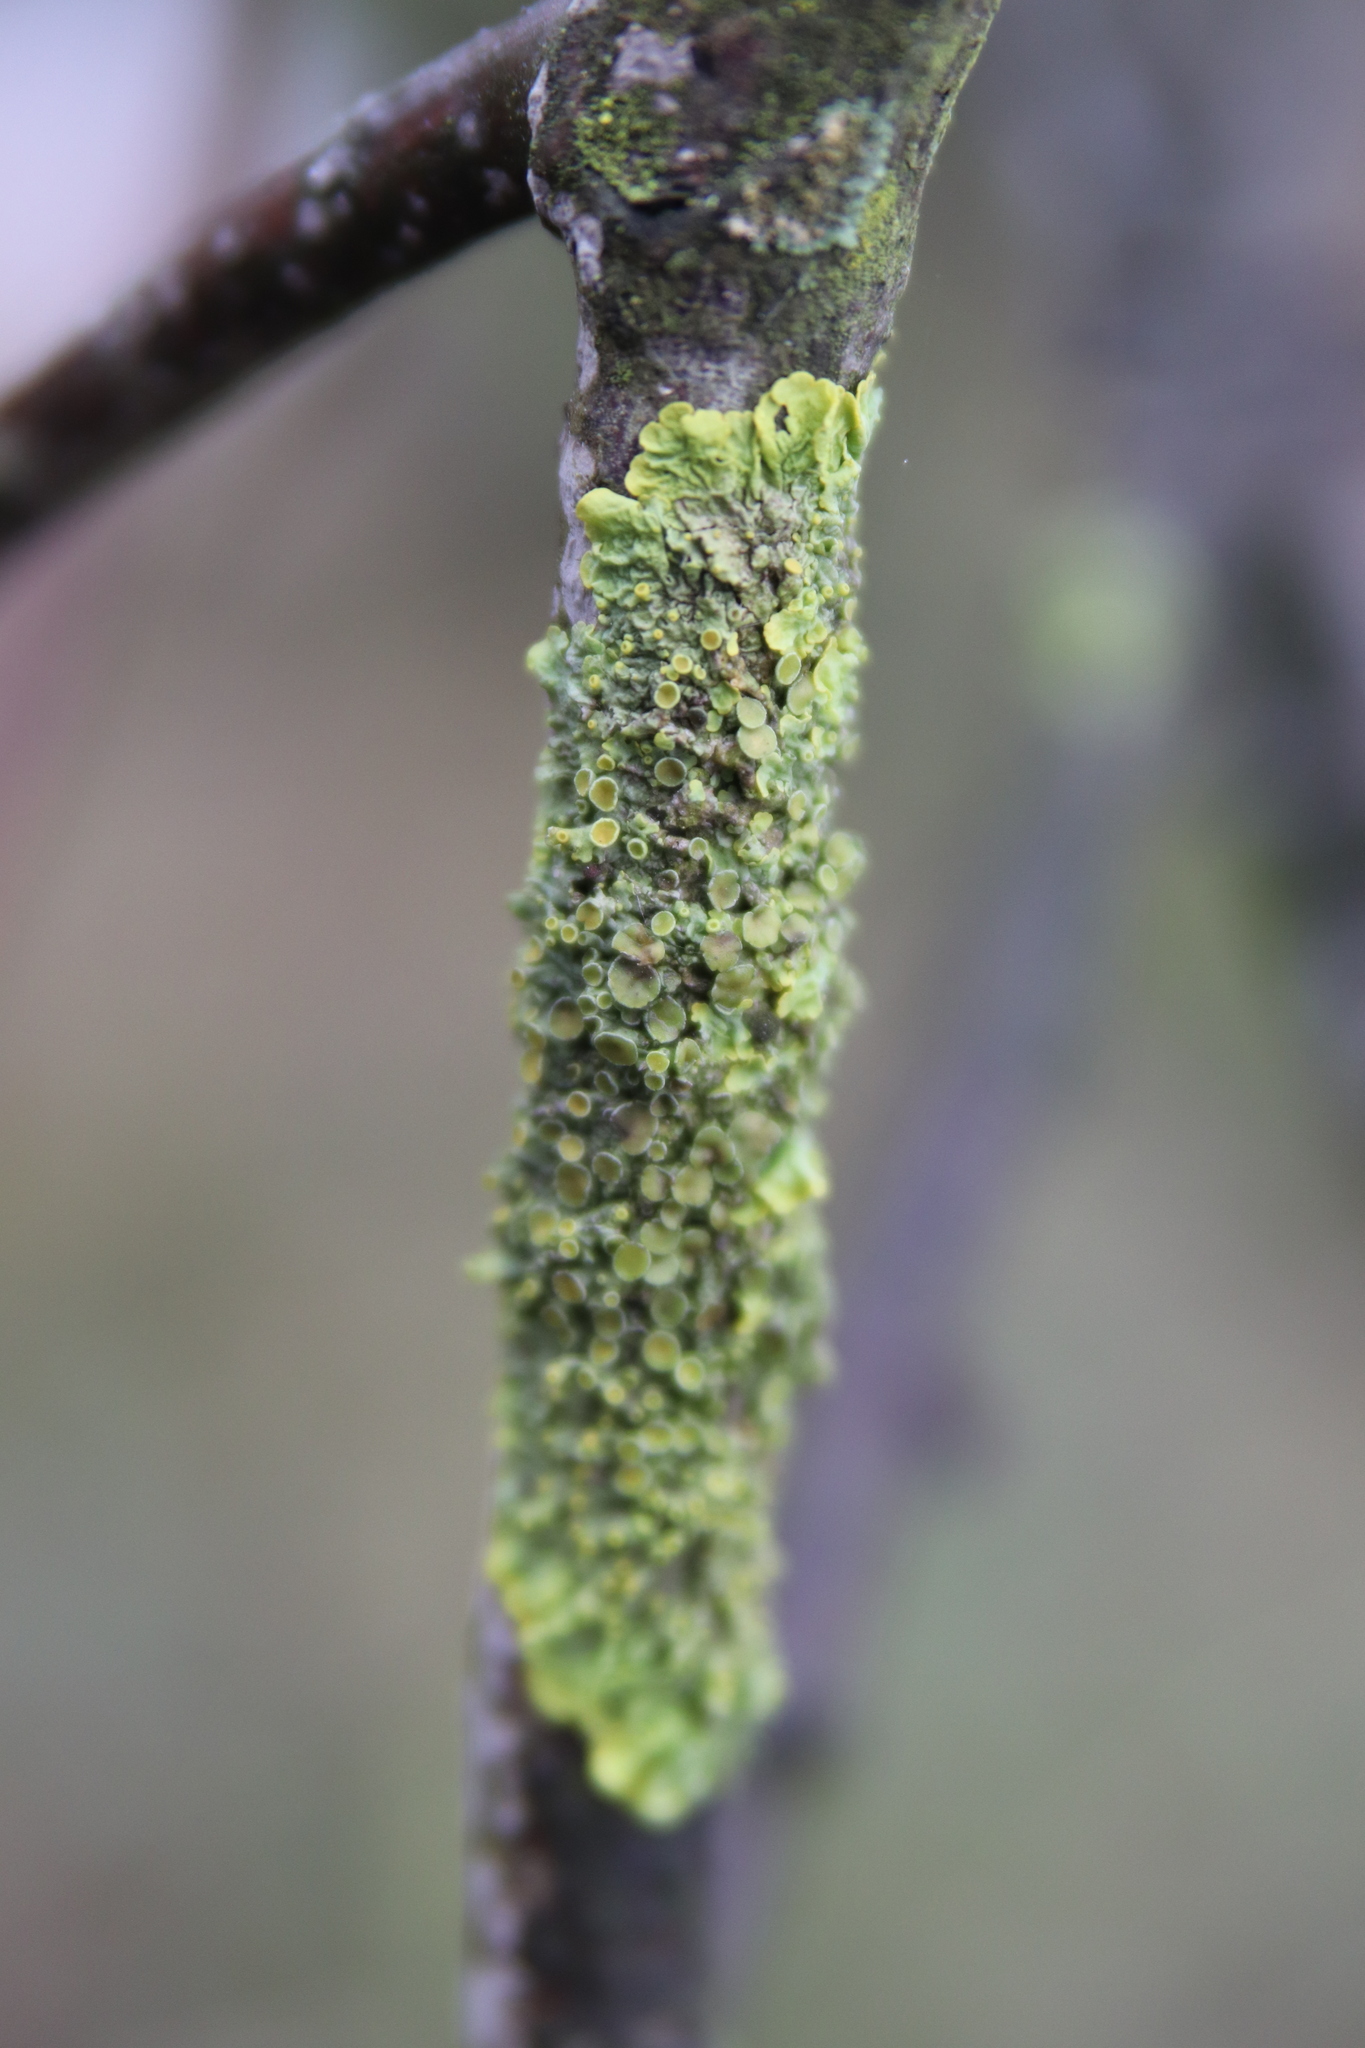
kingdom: Fungi
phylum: Ascomycota
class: Lecanoromycetes
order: Teloschistales
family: Teloschistaceae
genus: Xanthoria
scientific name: Xanthoria parietina
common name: Common orange lichen
